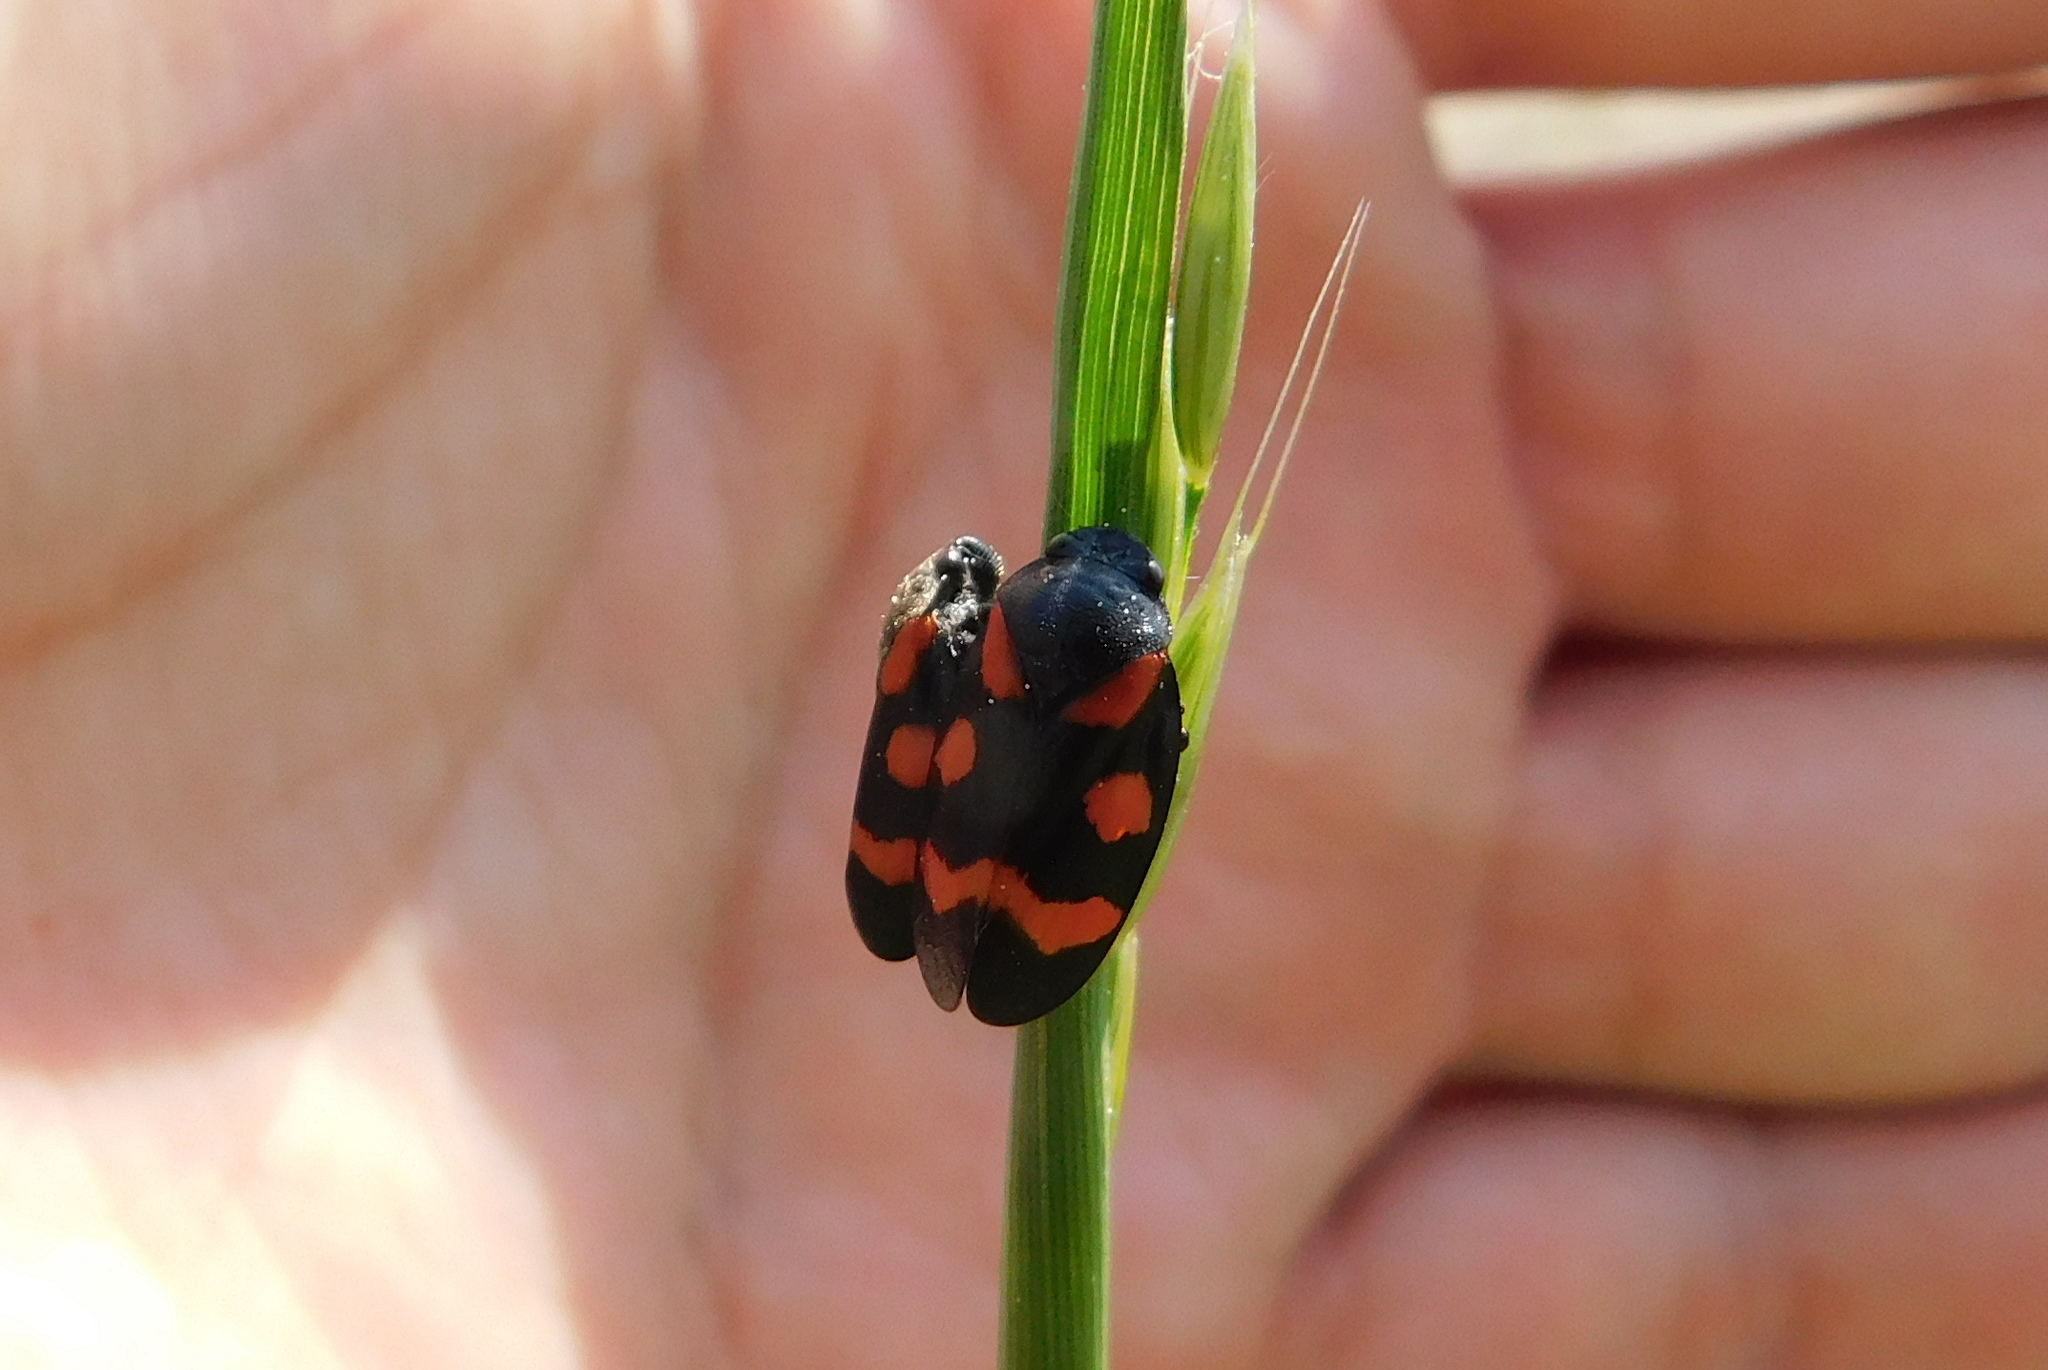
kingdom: Animalia
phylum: Arthropoda
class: Insecta
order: Hemiptera
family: Cercopidae
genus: Cercopis
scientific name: Cercopis sanguinolenta
